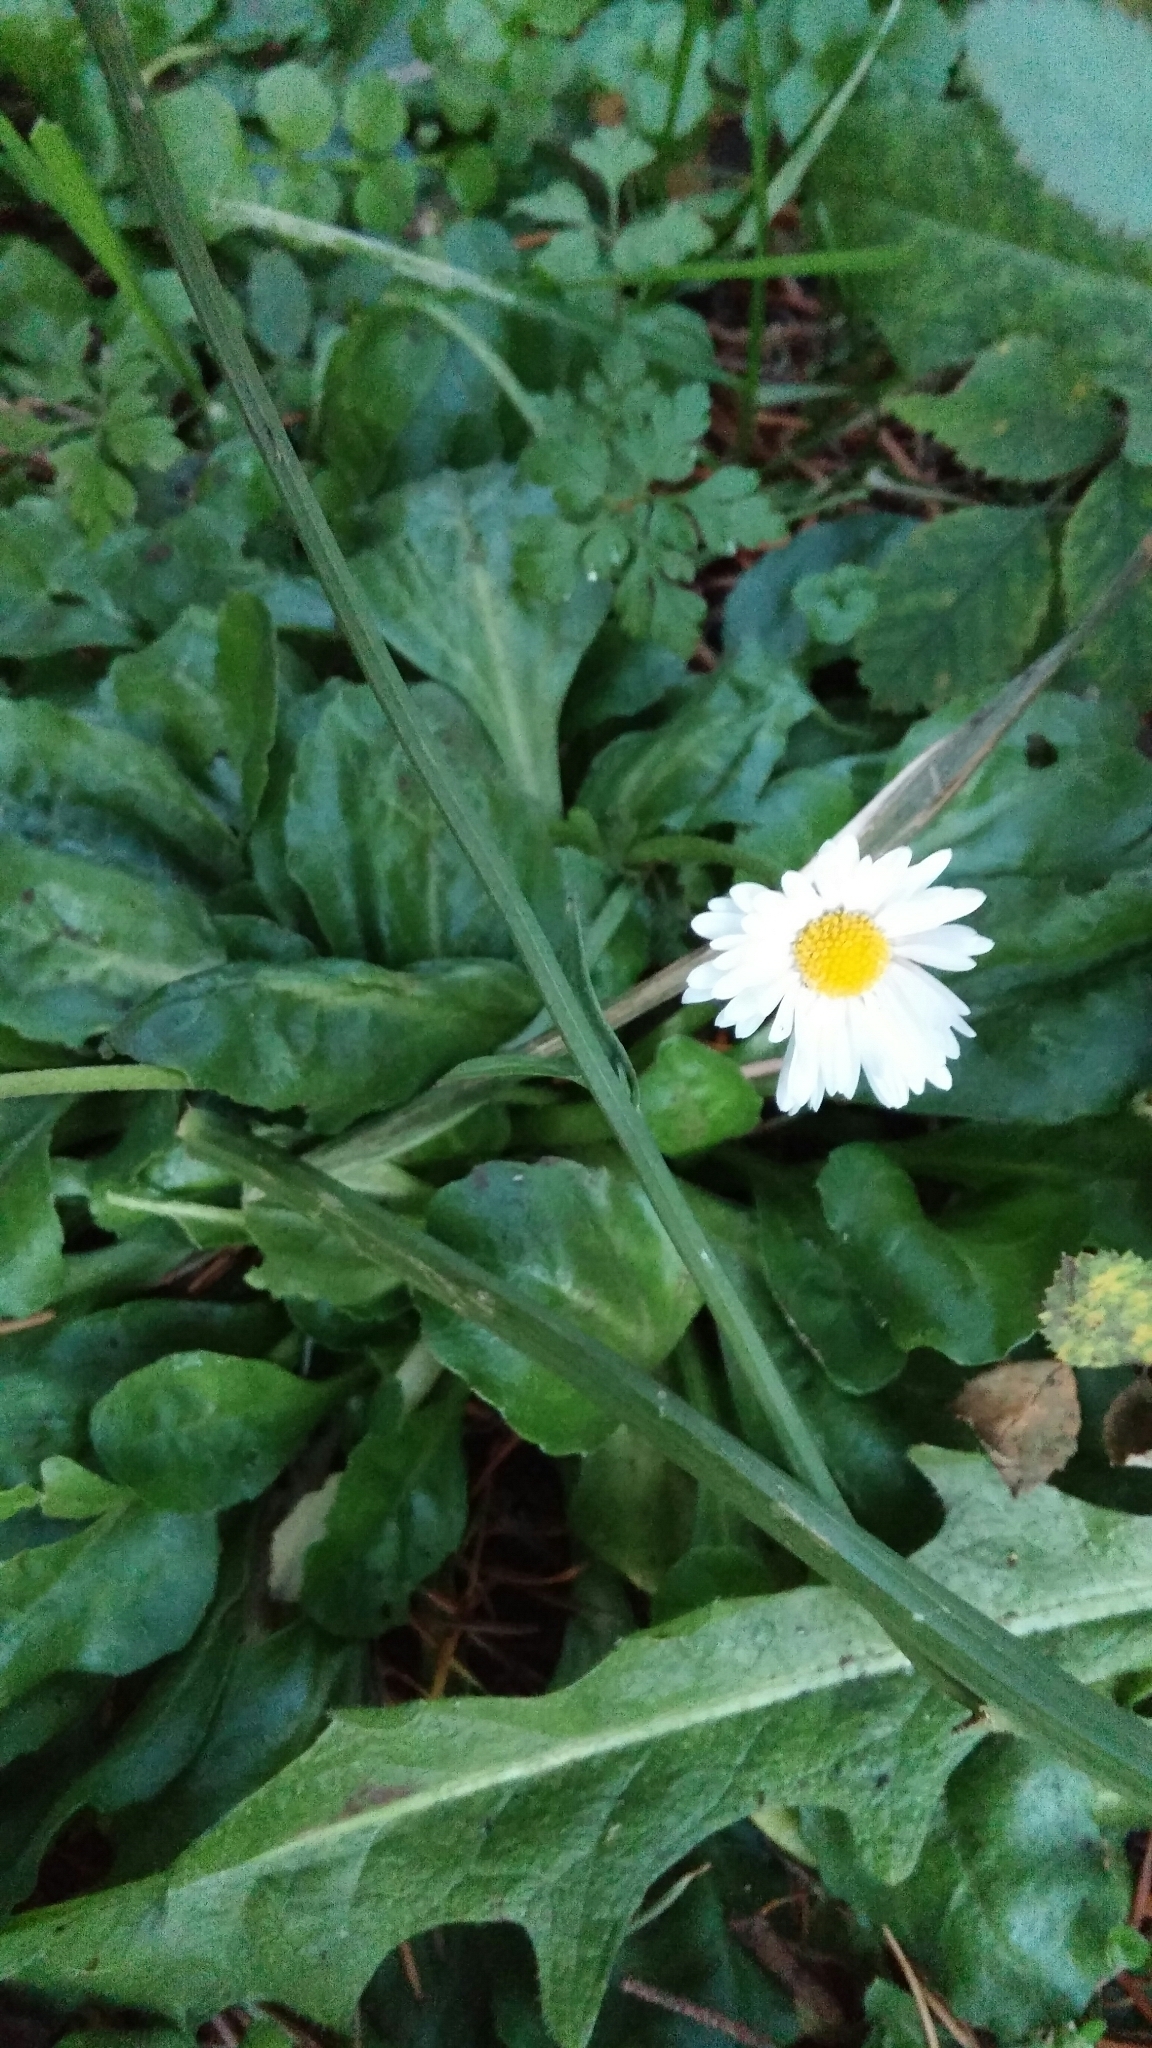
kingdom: Plantae
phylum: Tracheophyta
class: Magnoliopsida
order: Asterales
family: Asteraceae
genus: Bellis
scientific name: Bellis perennis
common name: Lawndaisy
